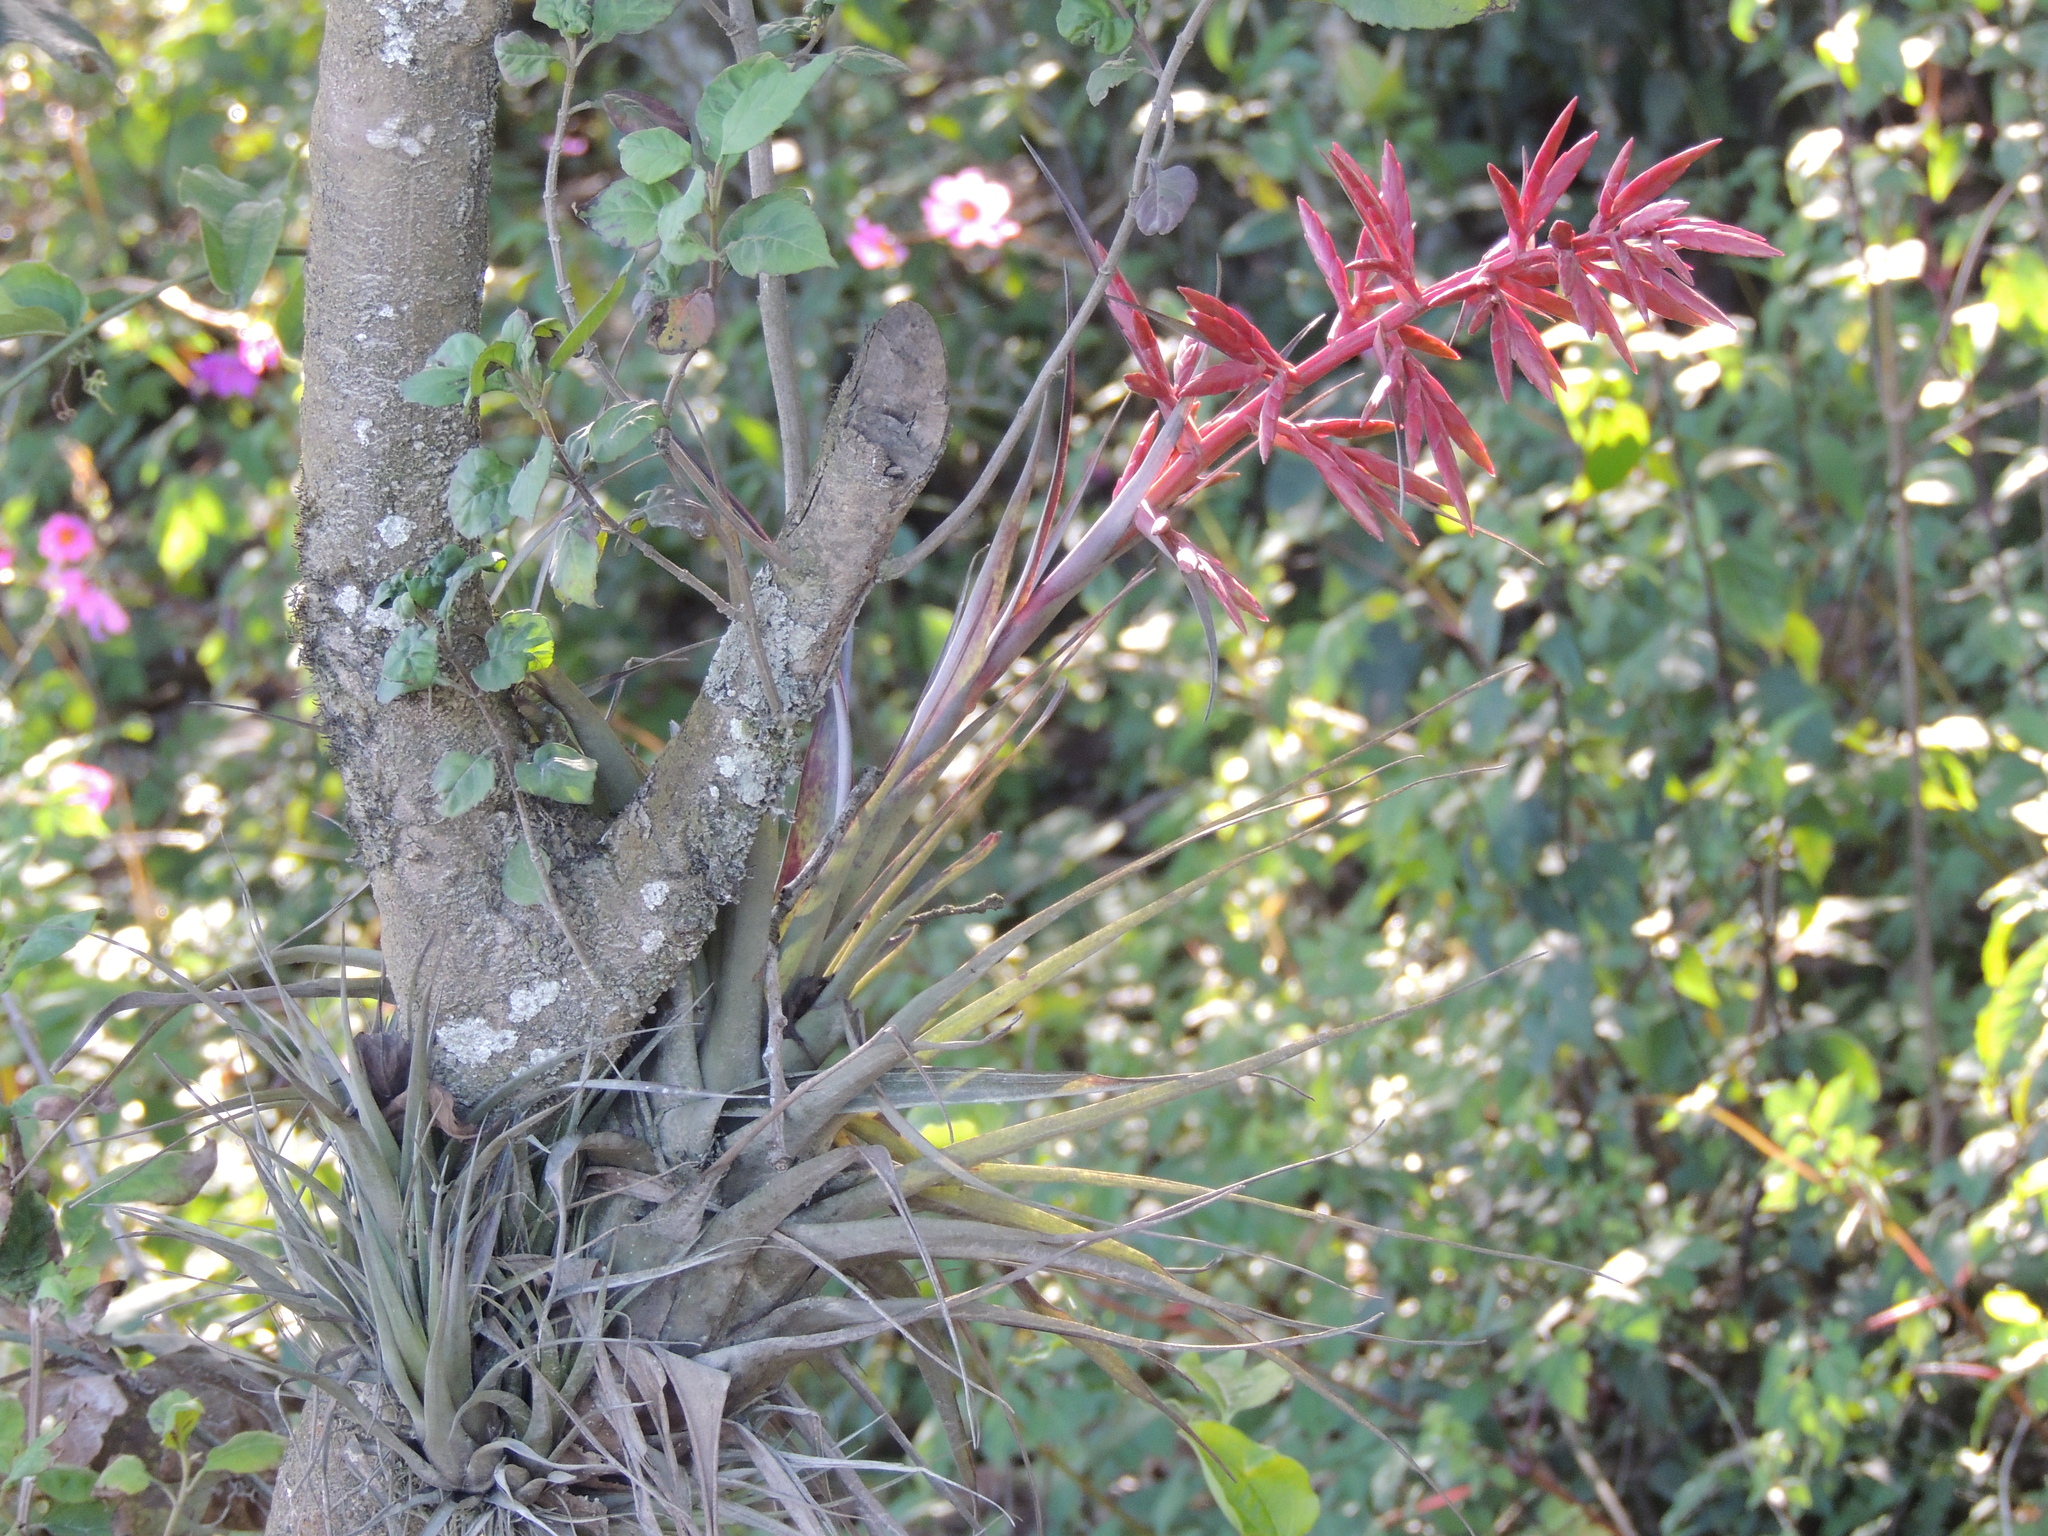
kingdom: Plantae
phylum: Tracheophyta
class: Liliopsida
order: Poales
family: Bromeliaceae
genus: Tillandsia
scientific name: Tillandsia gymnobotrya
